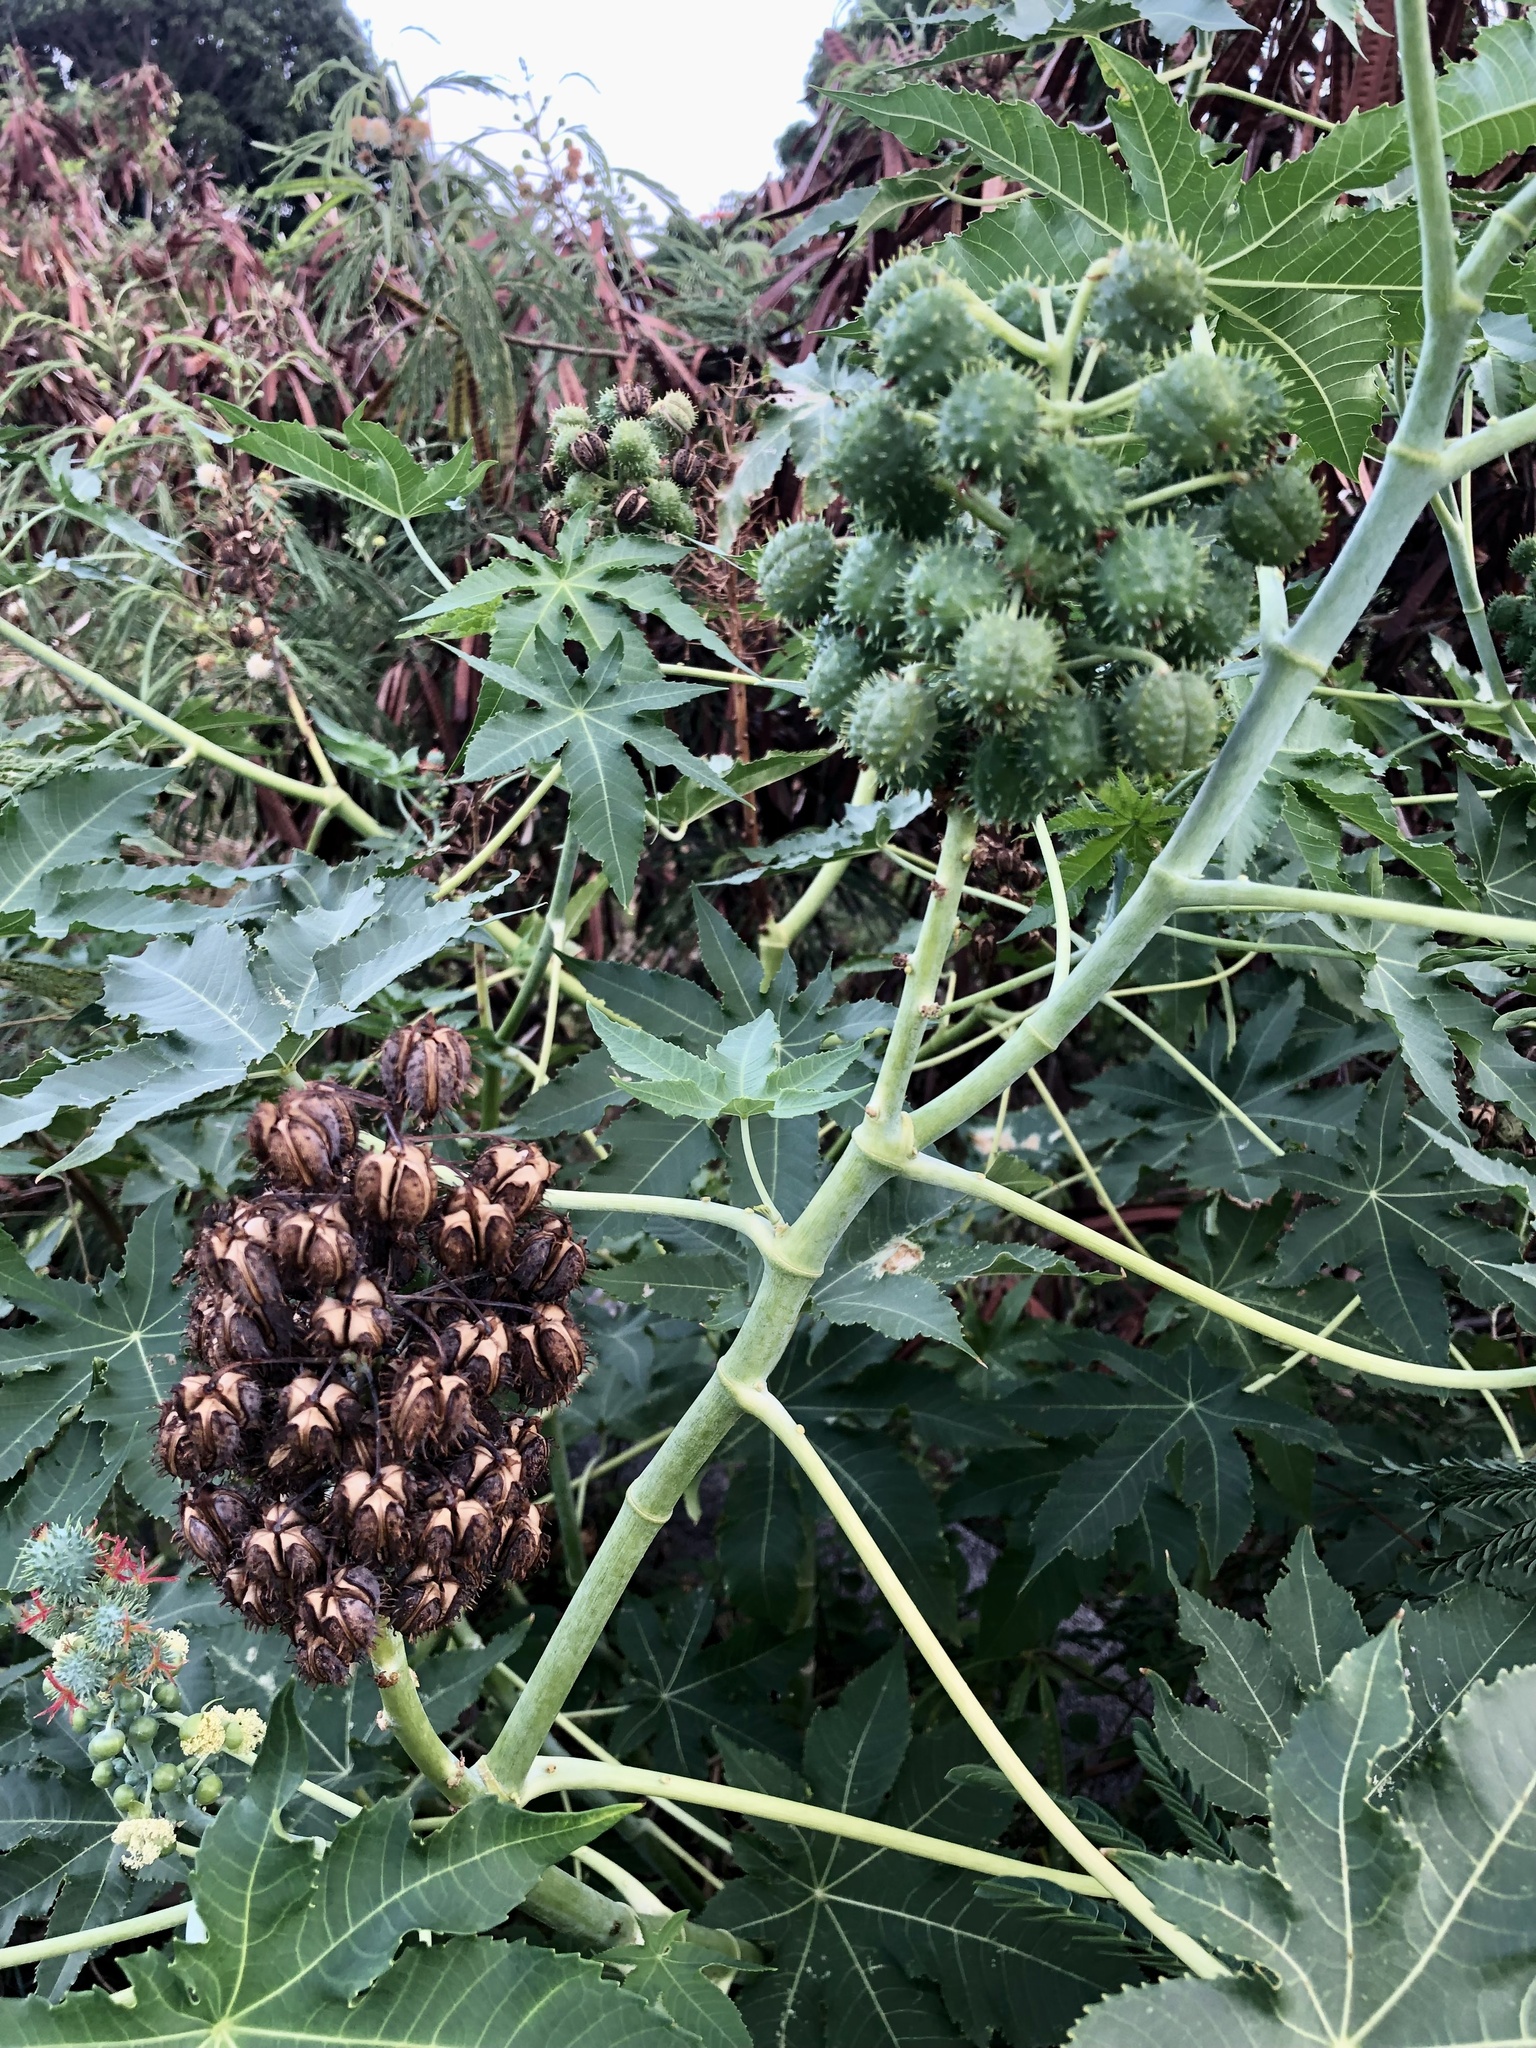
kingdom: Plantae
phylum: Tracheophyta
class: Magnoliopsida
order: Malpighiales
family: Euphorbiaceae
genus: Ricinus
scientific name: Ricinus communis
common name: Castor-oil-plant
